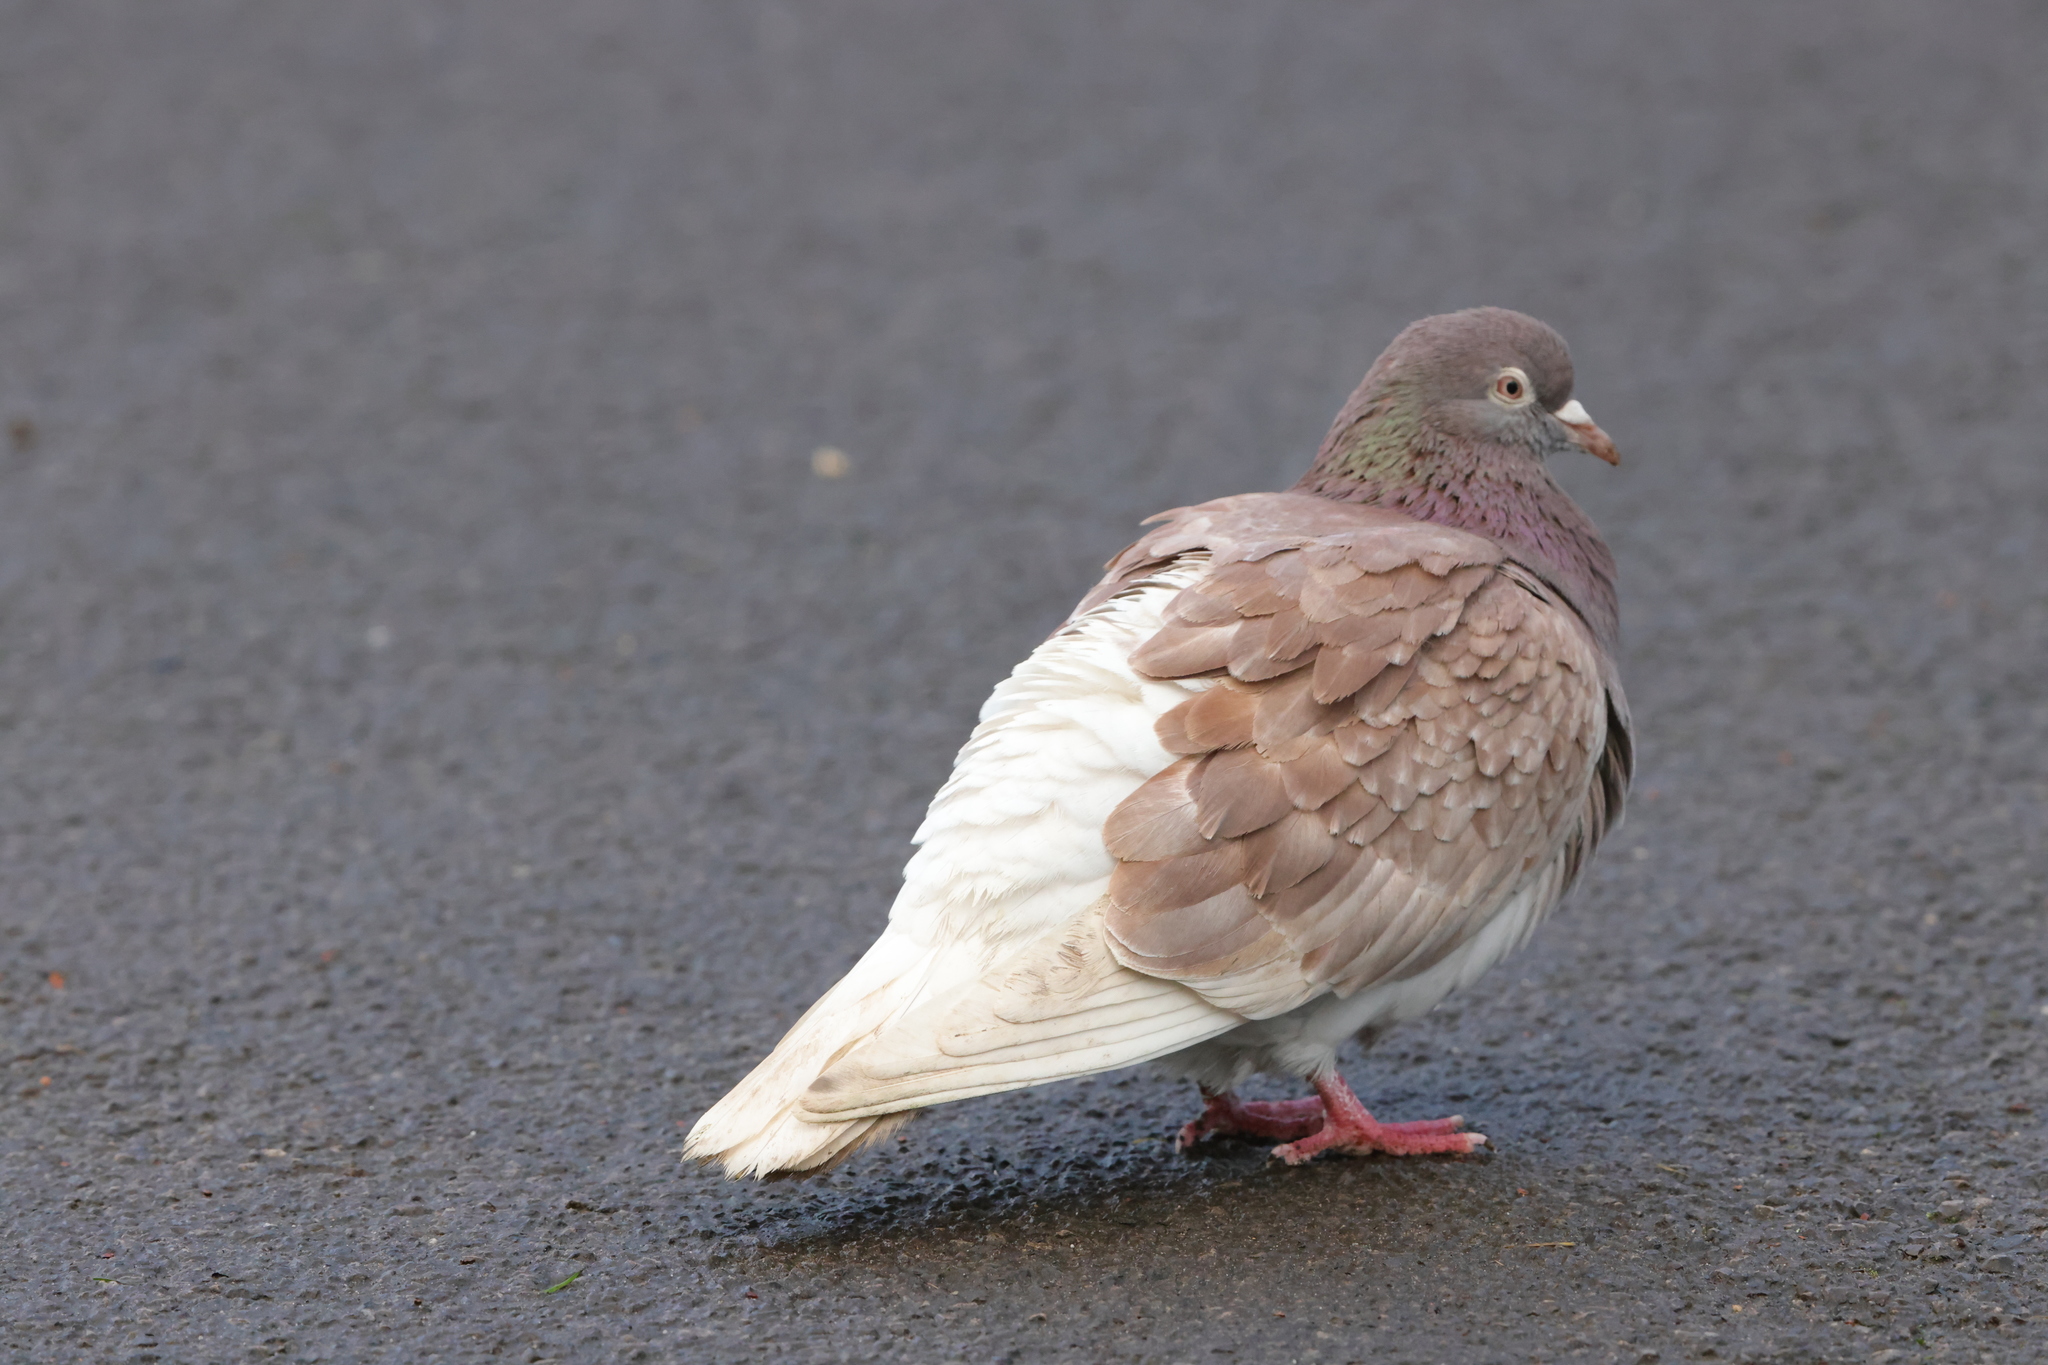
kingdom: Animalia
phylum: Chordata
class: Aves
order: Columbiformes
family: Columbidae
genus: Columba
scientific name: Columba livia
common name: Rock pigeon
